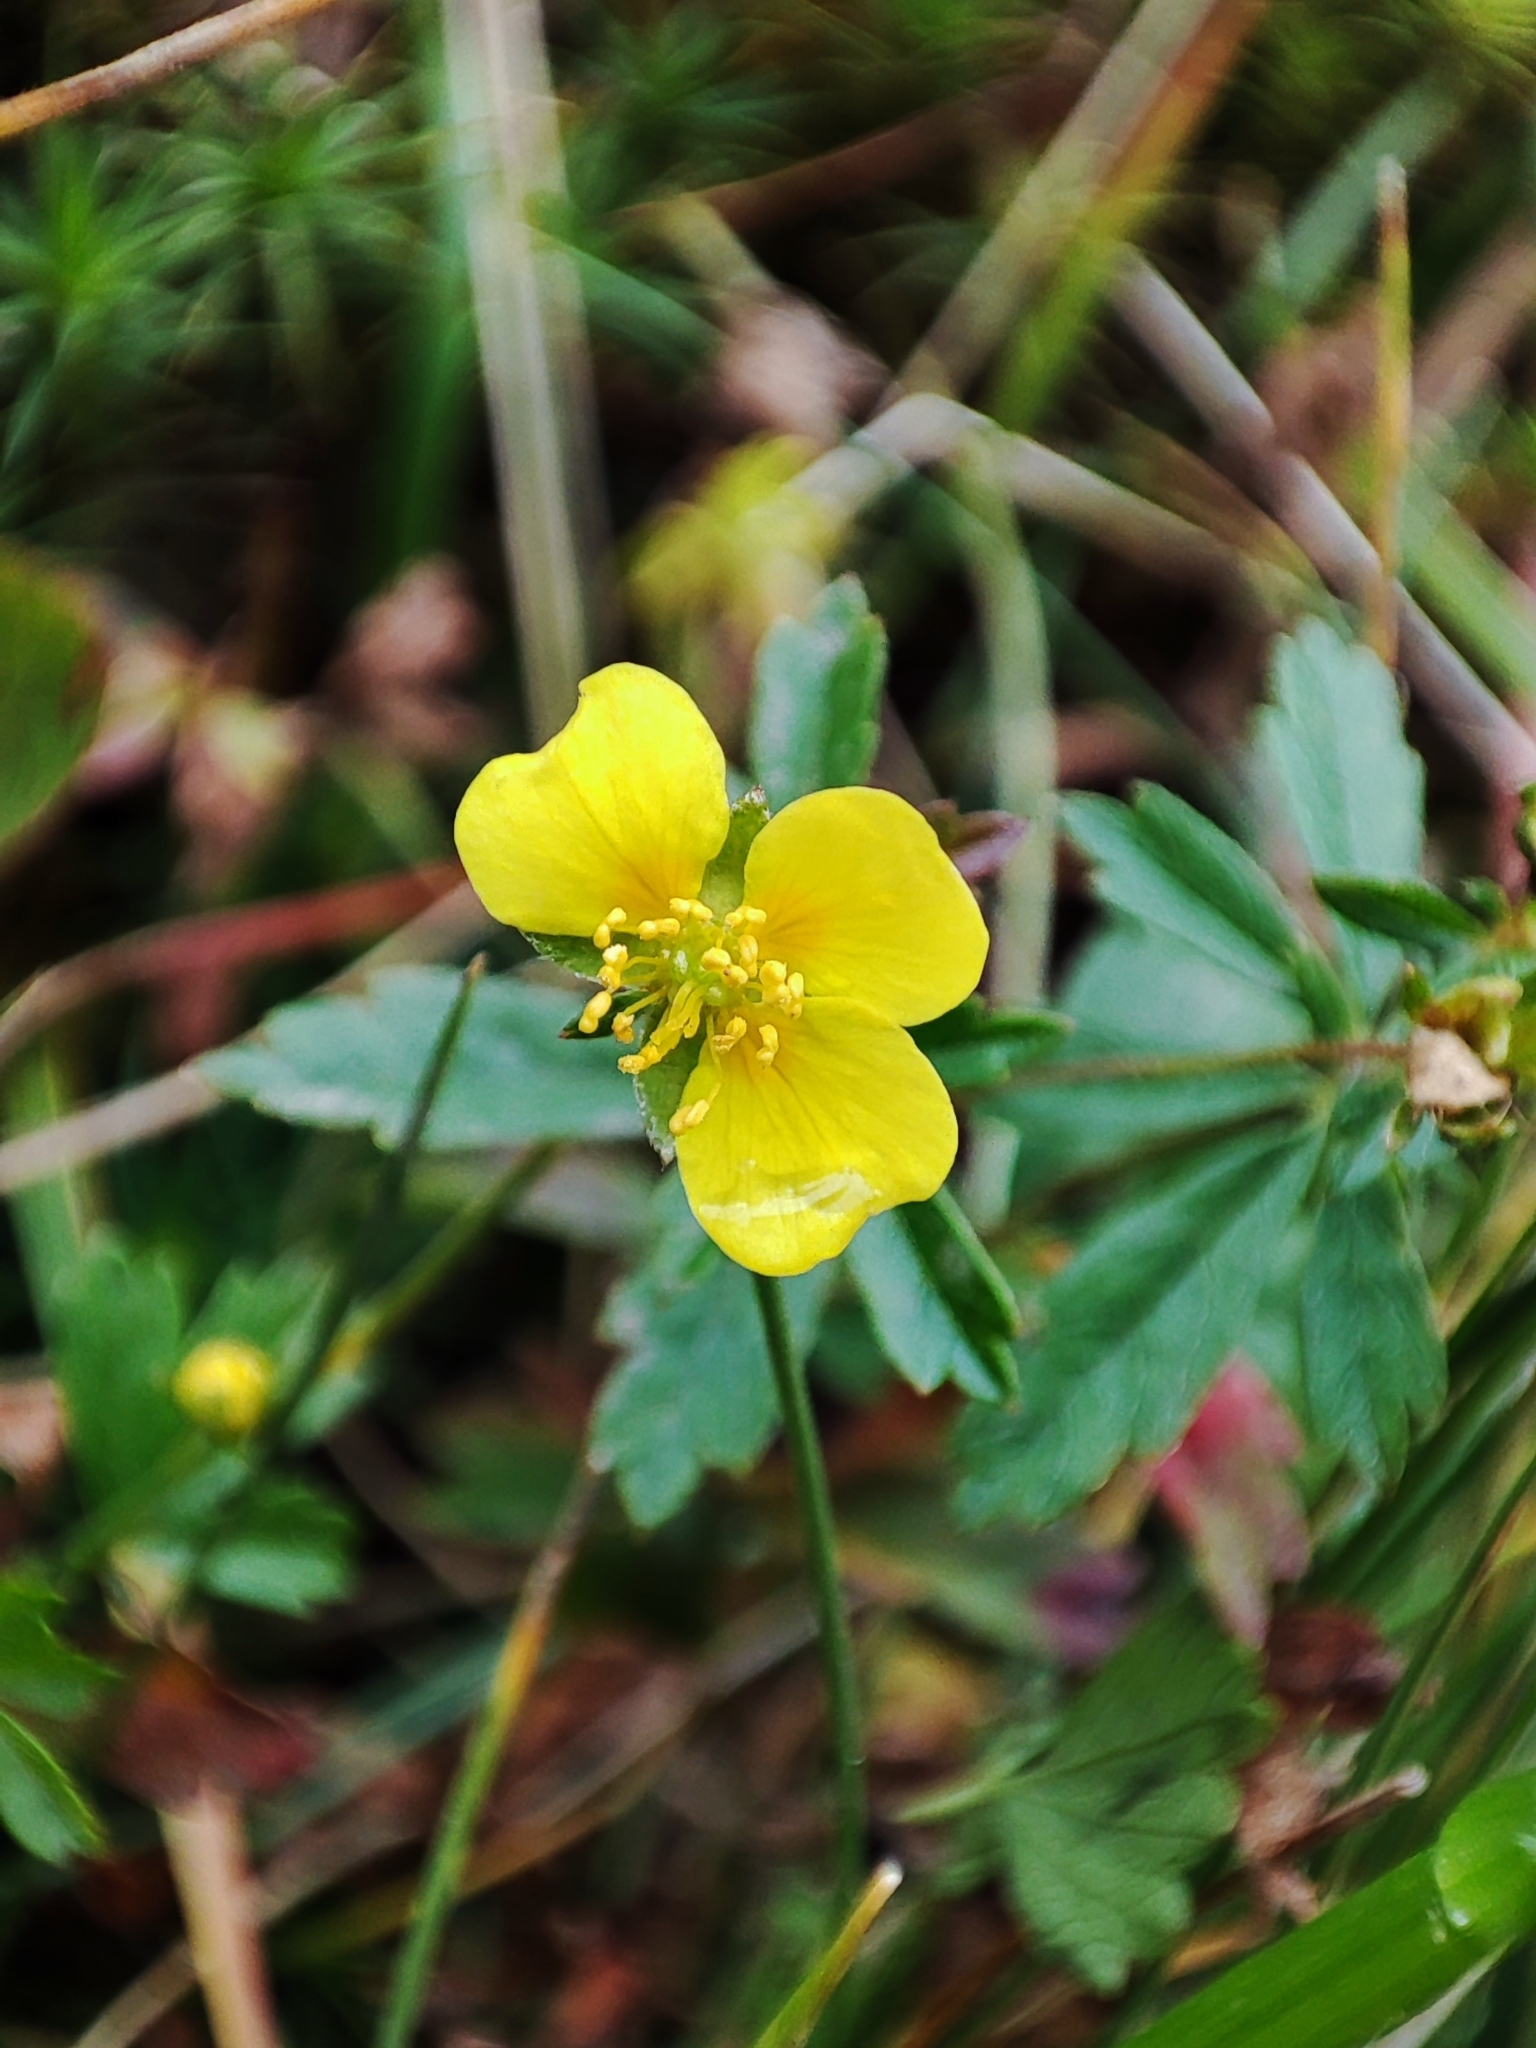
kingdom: Plantae
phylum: Tracheophyta
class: Magnoliopsida
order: Rosales
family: Rosaceae
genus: Potentilla
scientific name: Potentilla erecta
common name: Tormentil
